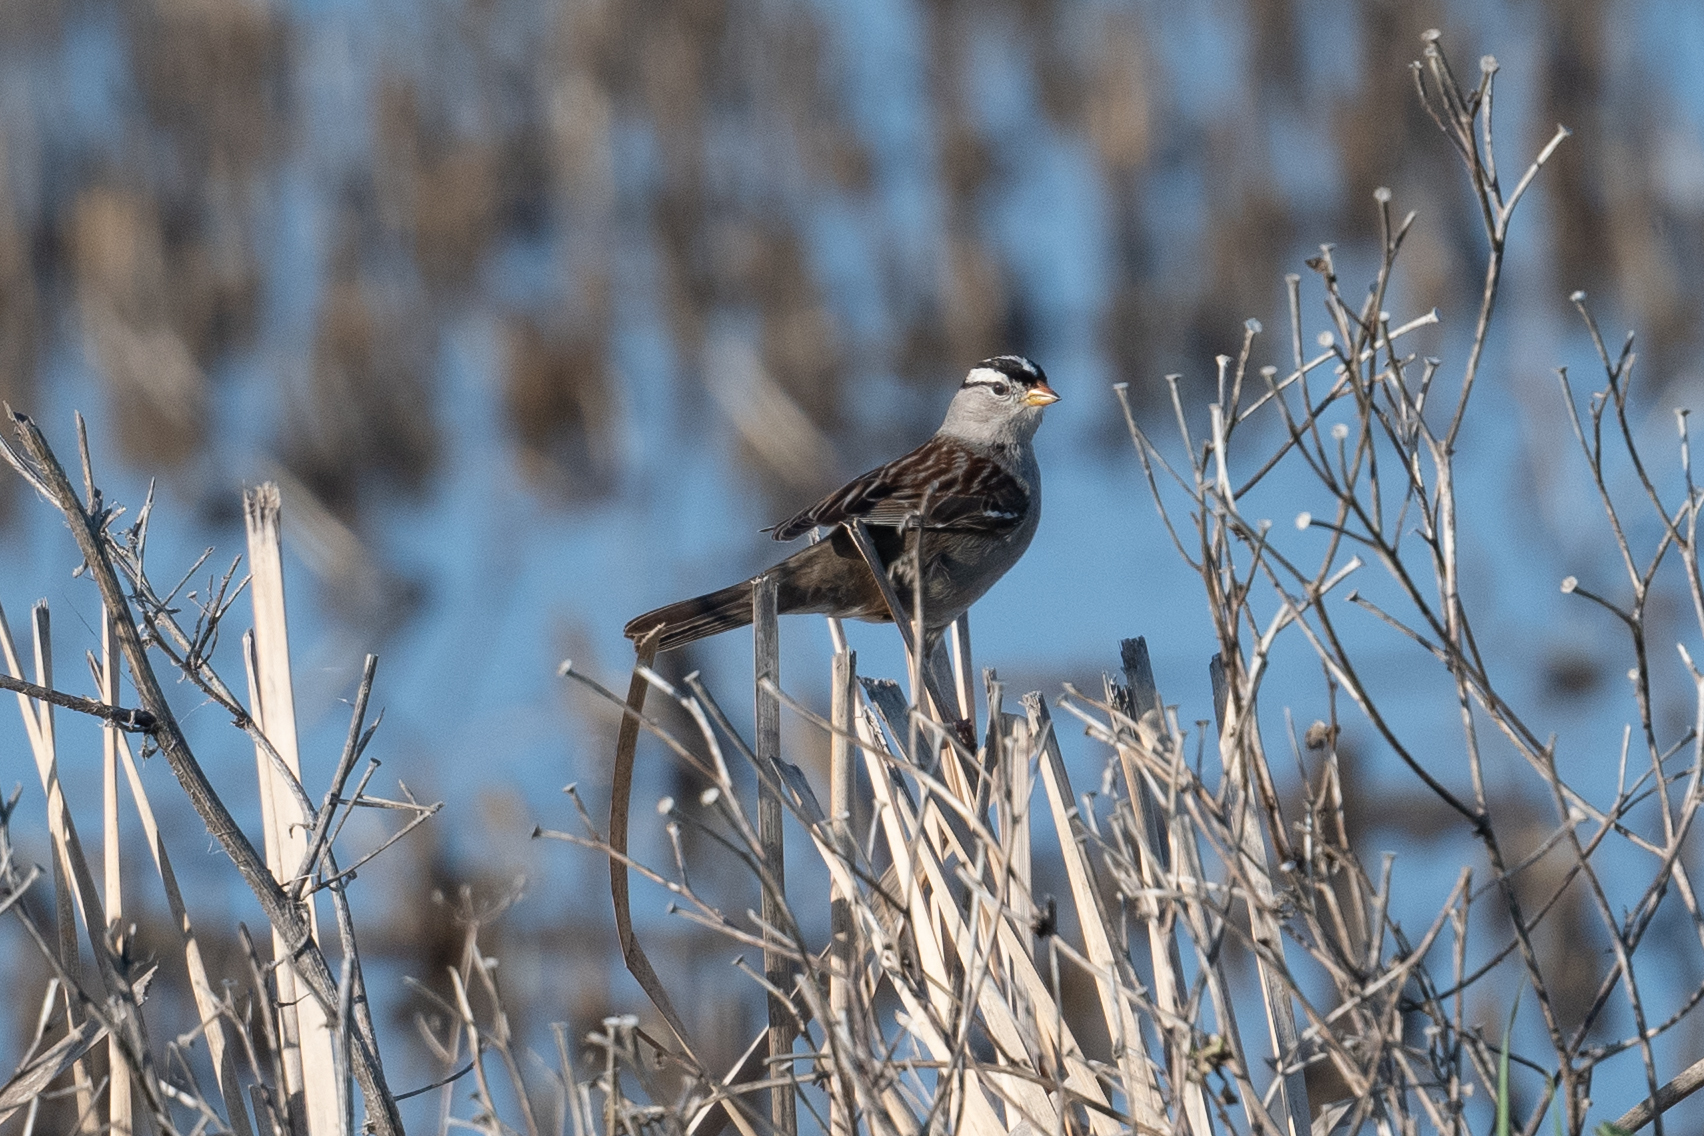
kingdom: Animalia
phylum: Chordata
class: Aves
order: Passeriformes
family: Passerellidae
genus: Zonotrichia
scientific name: Zonotrichia leucophrys
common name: White-crowned sparrow
